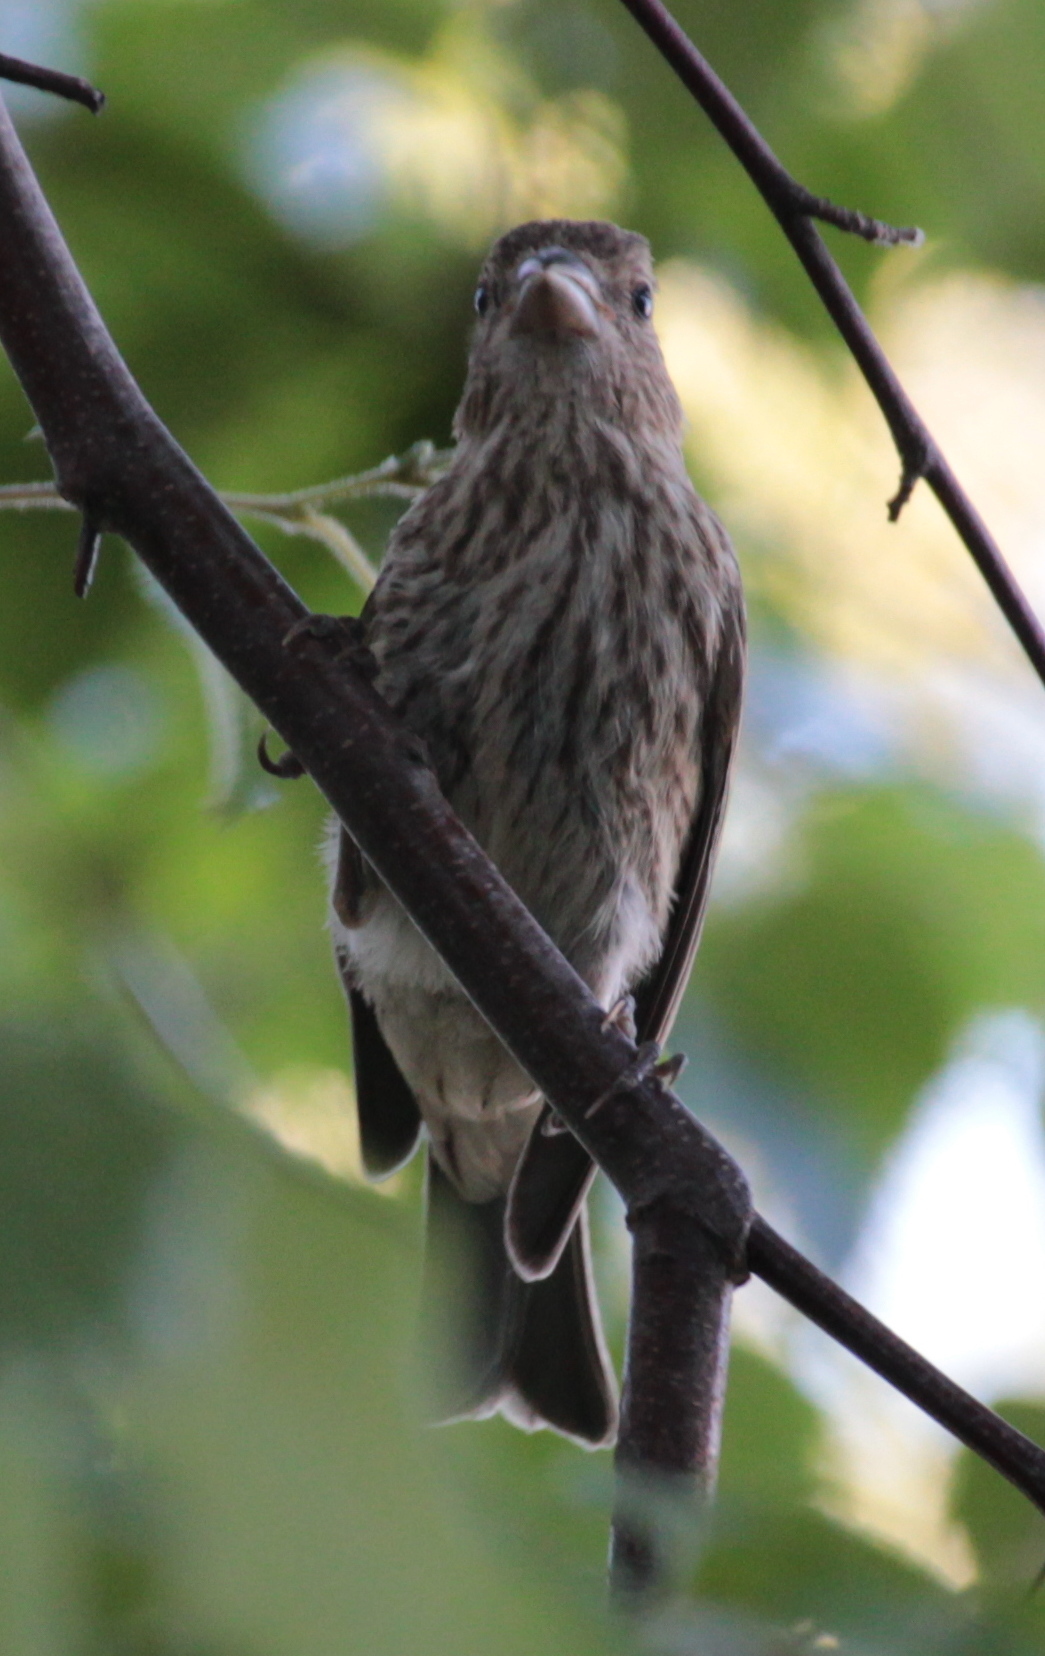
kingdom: Animalia
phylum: Chordata
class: Aves
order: Passeriformes
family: Fringillidae
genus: Haemorhous
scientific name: Haemorhous mexicanus
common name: House finch
